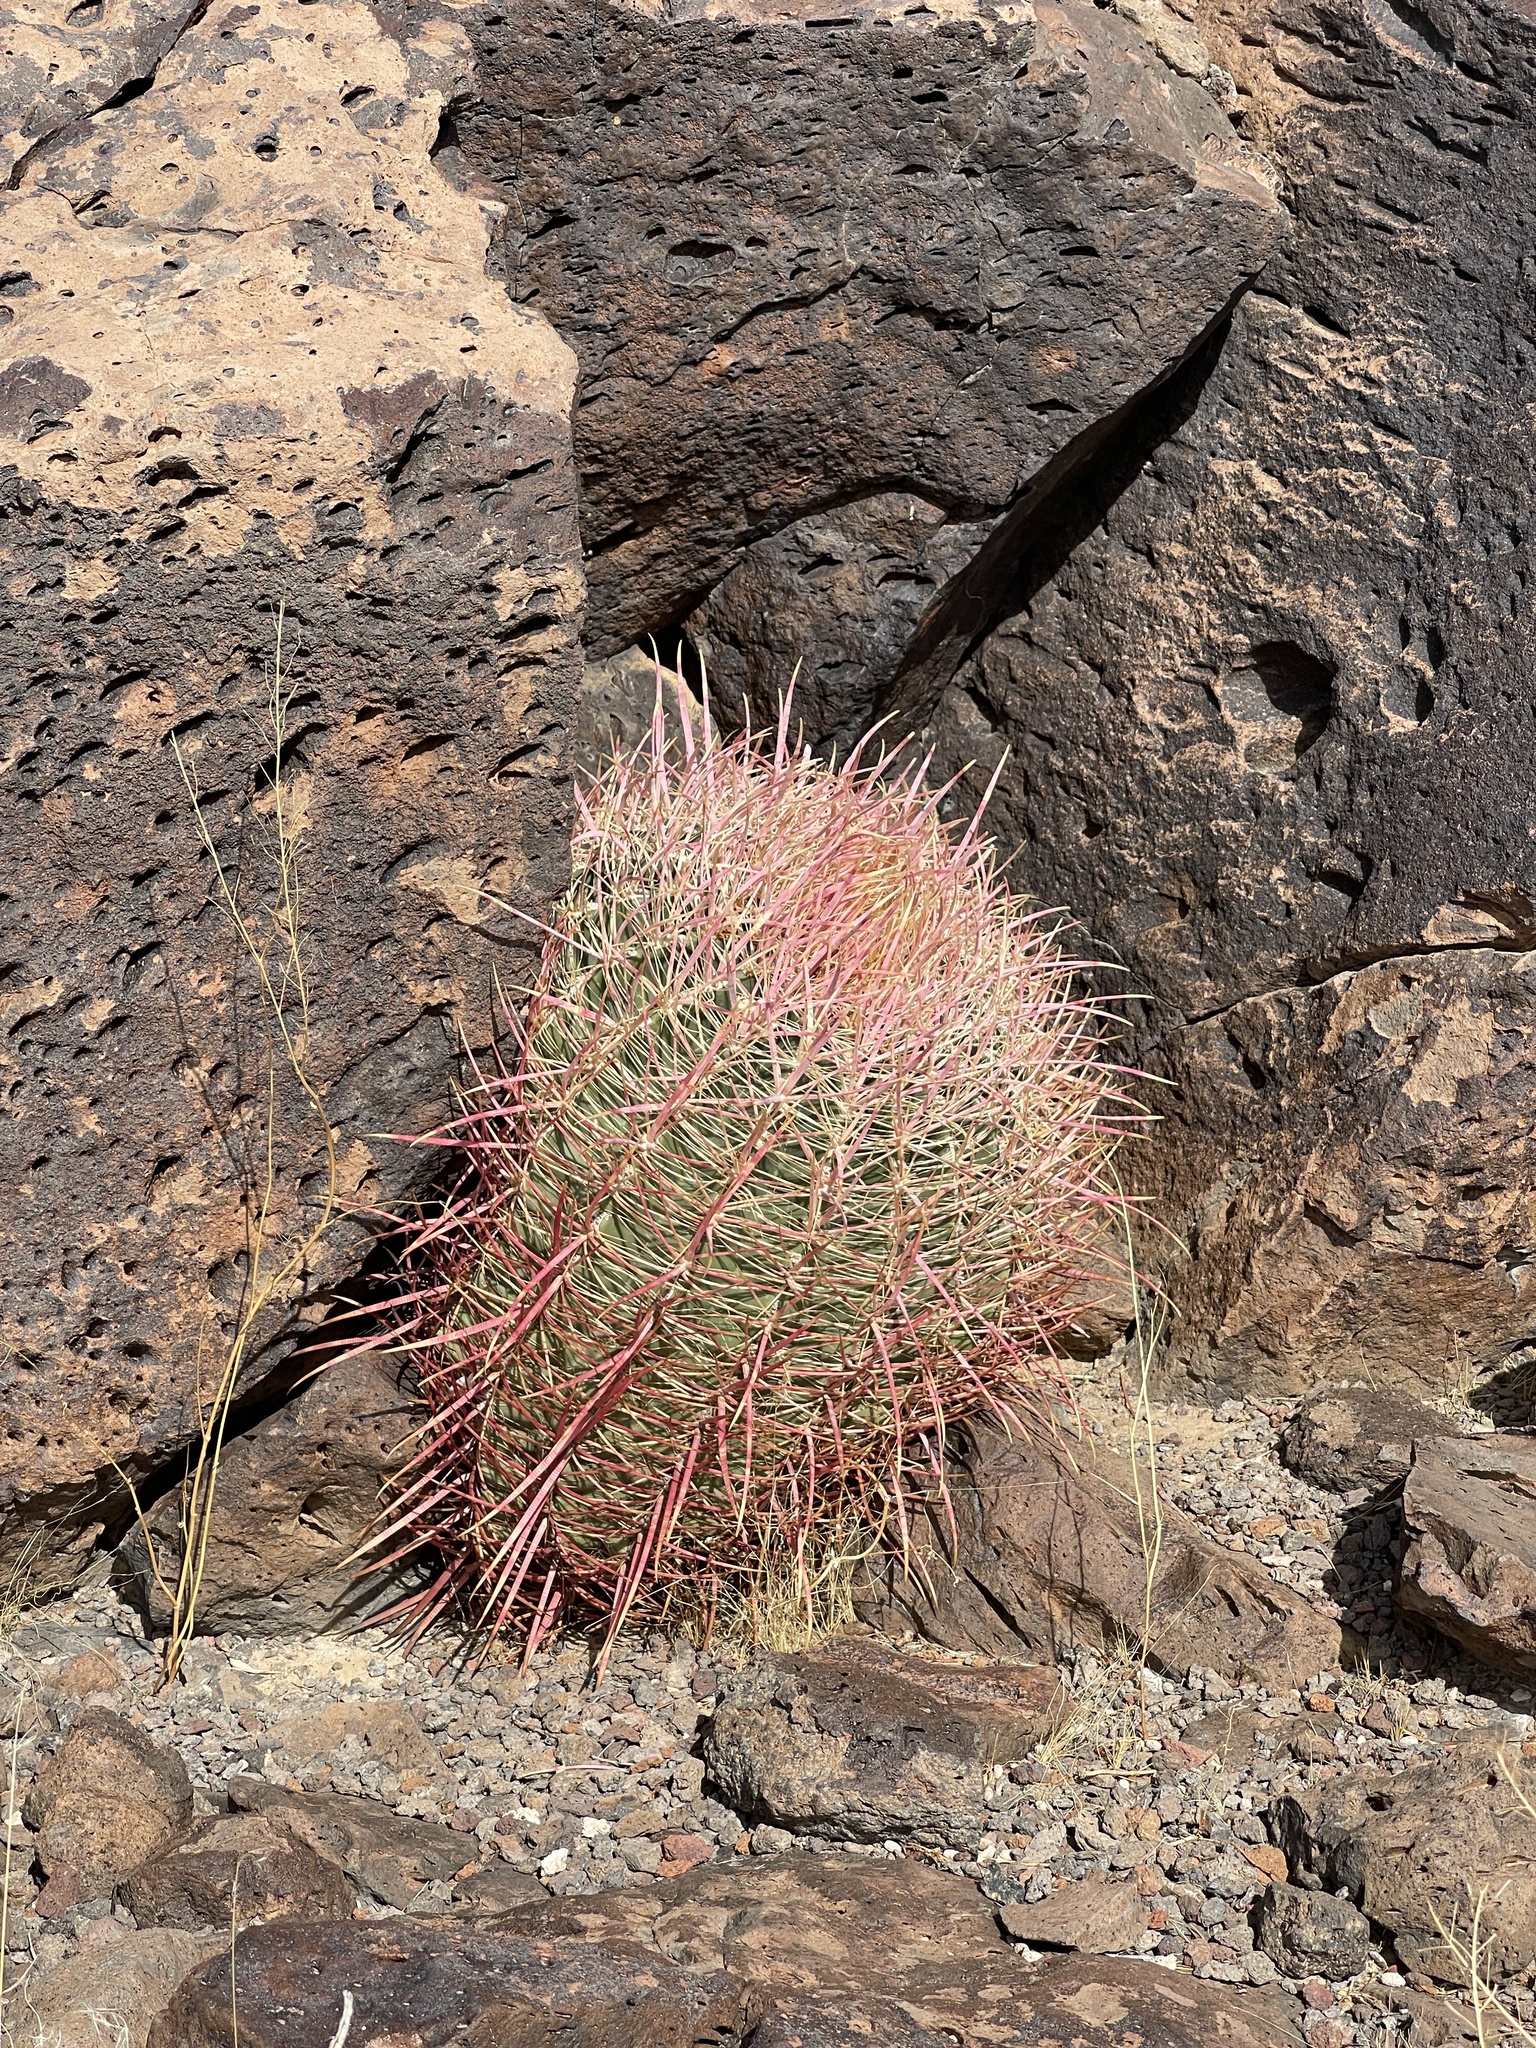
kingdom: Plantae
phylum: Tracheophyta
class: Magnoliopsida
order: Caryophyllales
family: Cactaceae
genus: Ferocactus
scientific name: Ferocactus cylindraceus
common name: California barrel cactus
